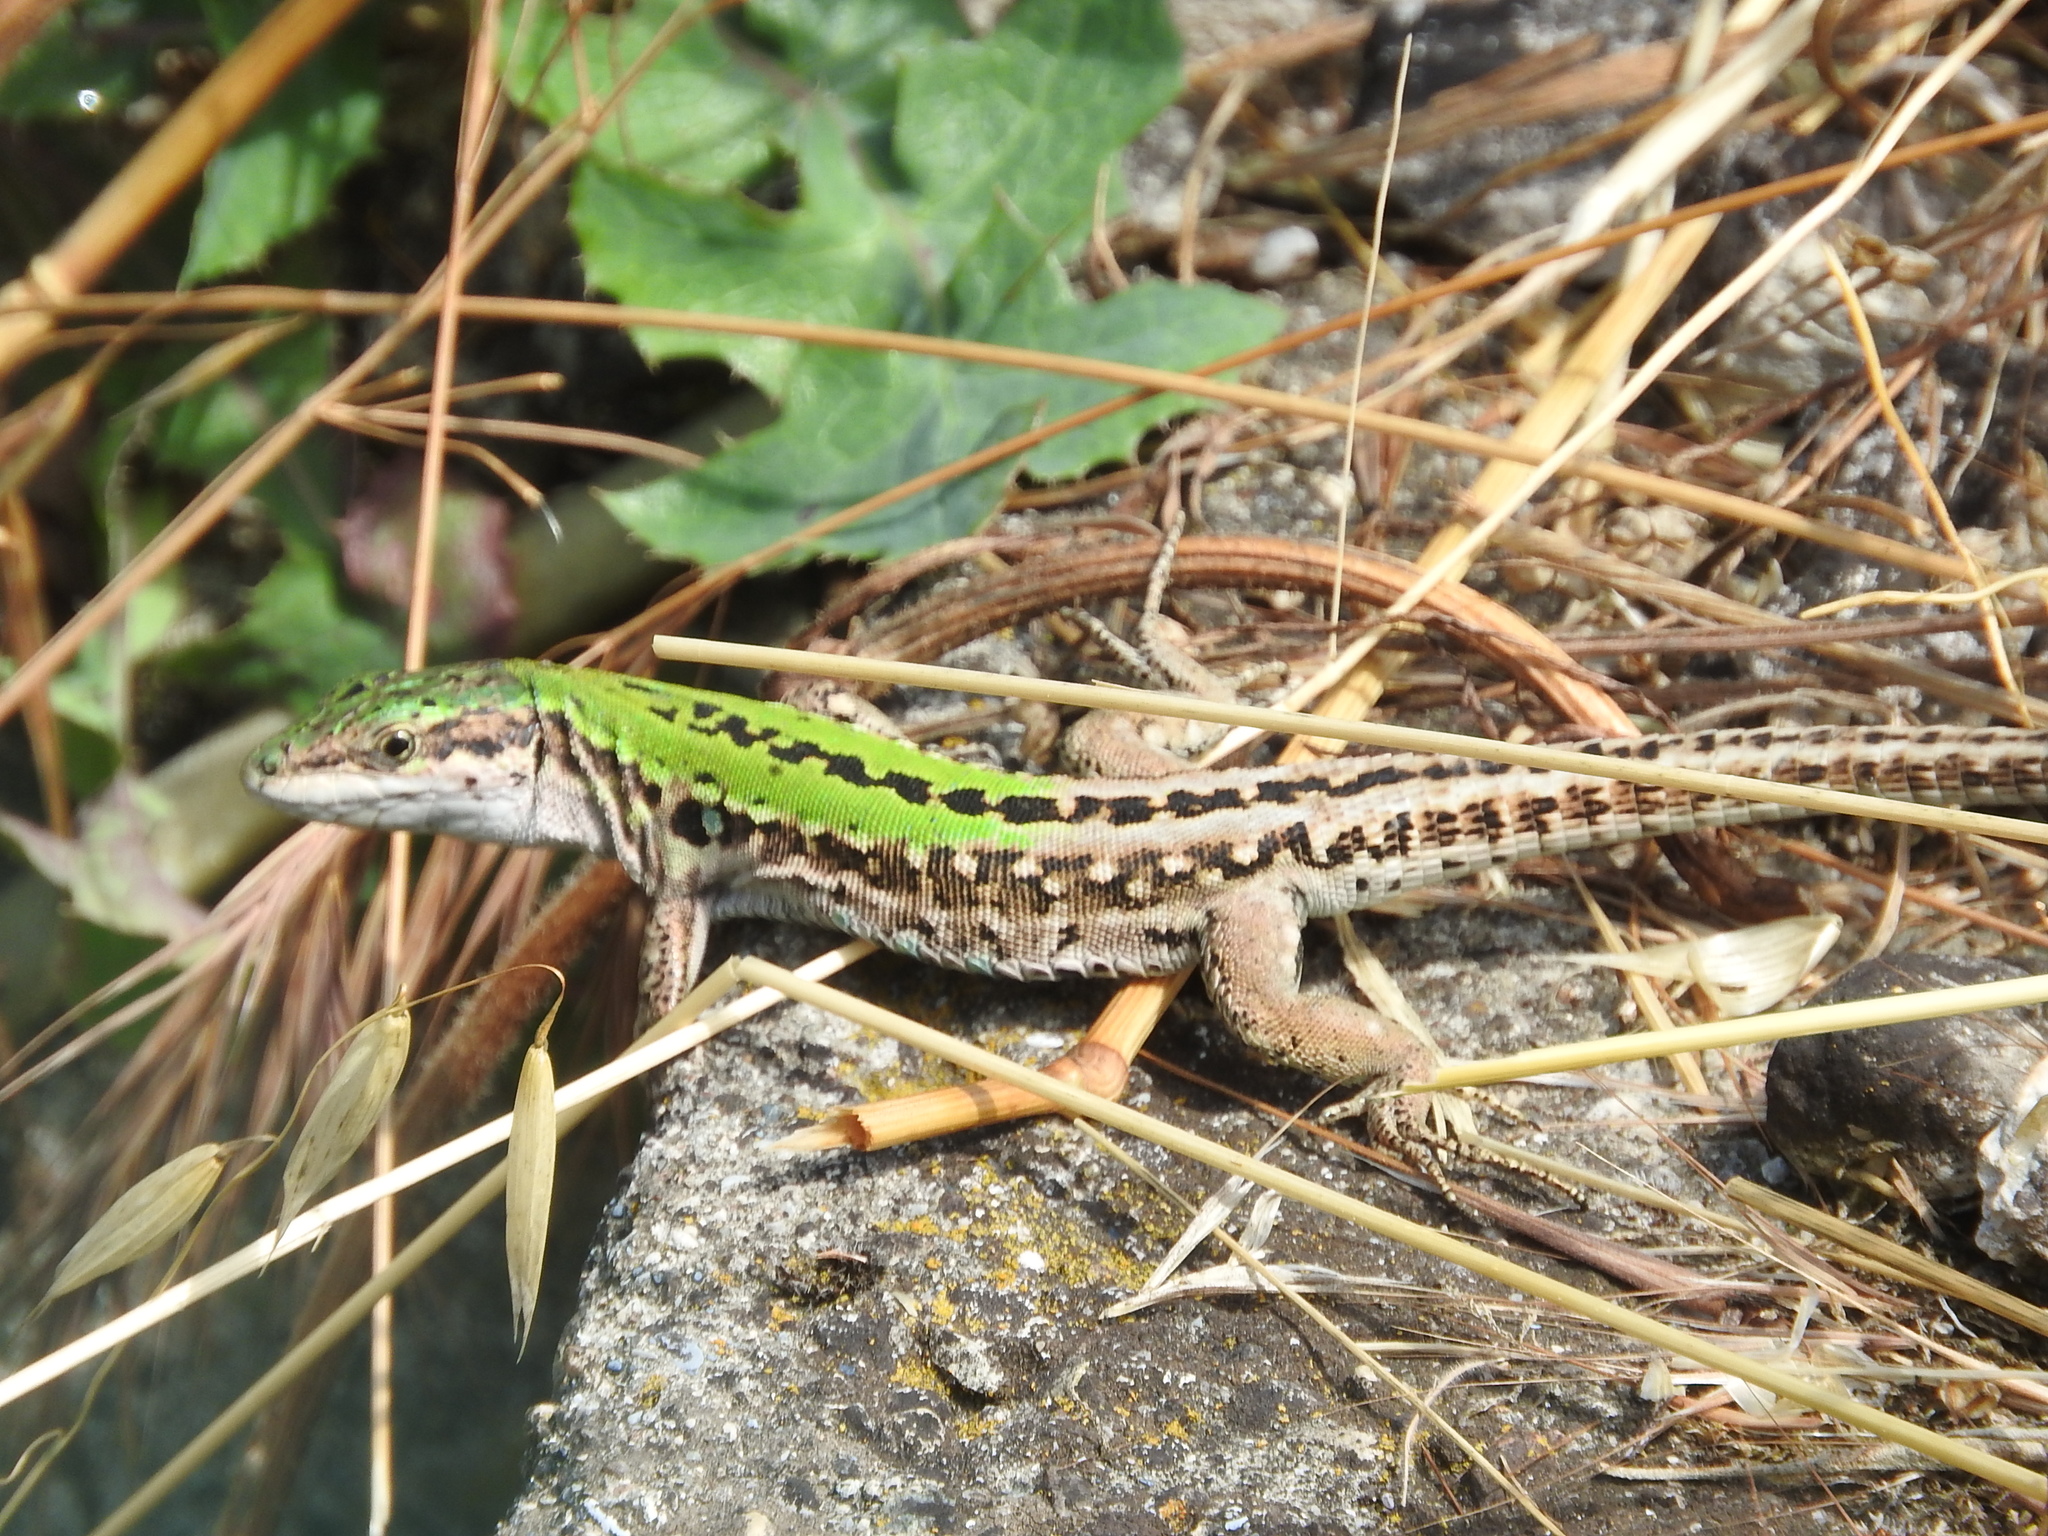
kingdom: Animalia
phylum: Chordata
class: Squamata
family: Lacertidae
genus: Podarcis
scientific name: Podarcis siculus
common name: Italian wall lizard
